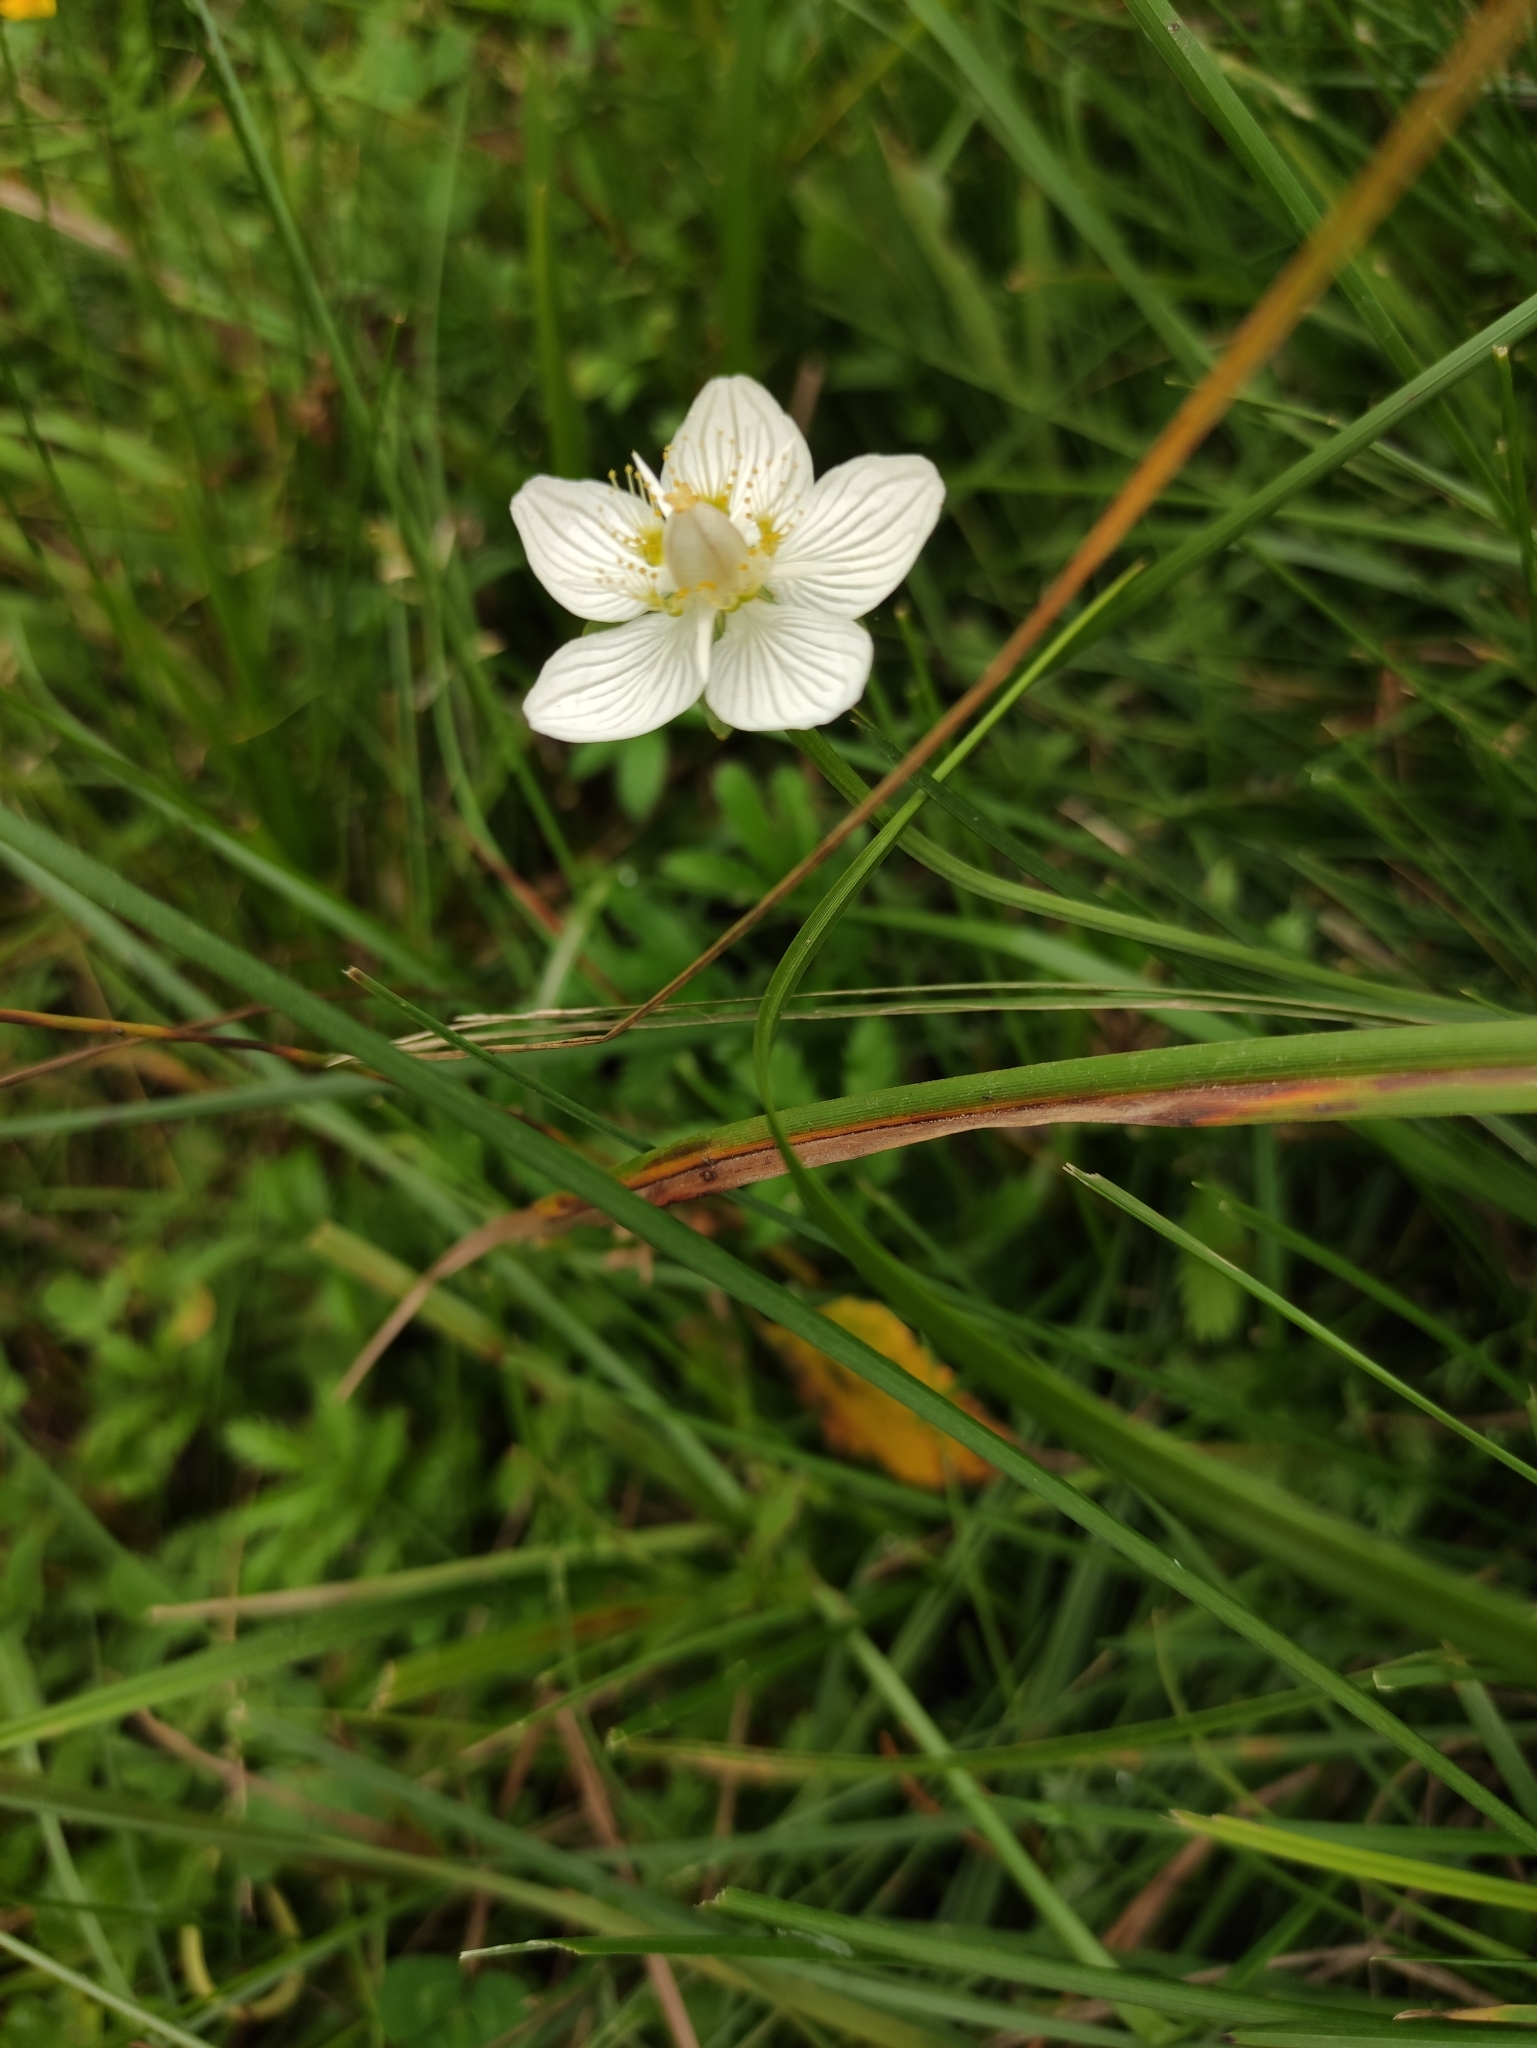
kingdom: Plantae
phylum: Tracheophyta
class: Magnoliopsida
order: Celastrales
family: Parnassiaceae
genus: Parnassia
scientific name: Parnassia palustris
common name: Grass-of-parnassus
